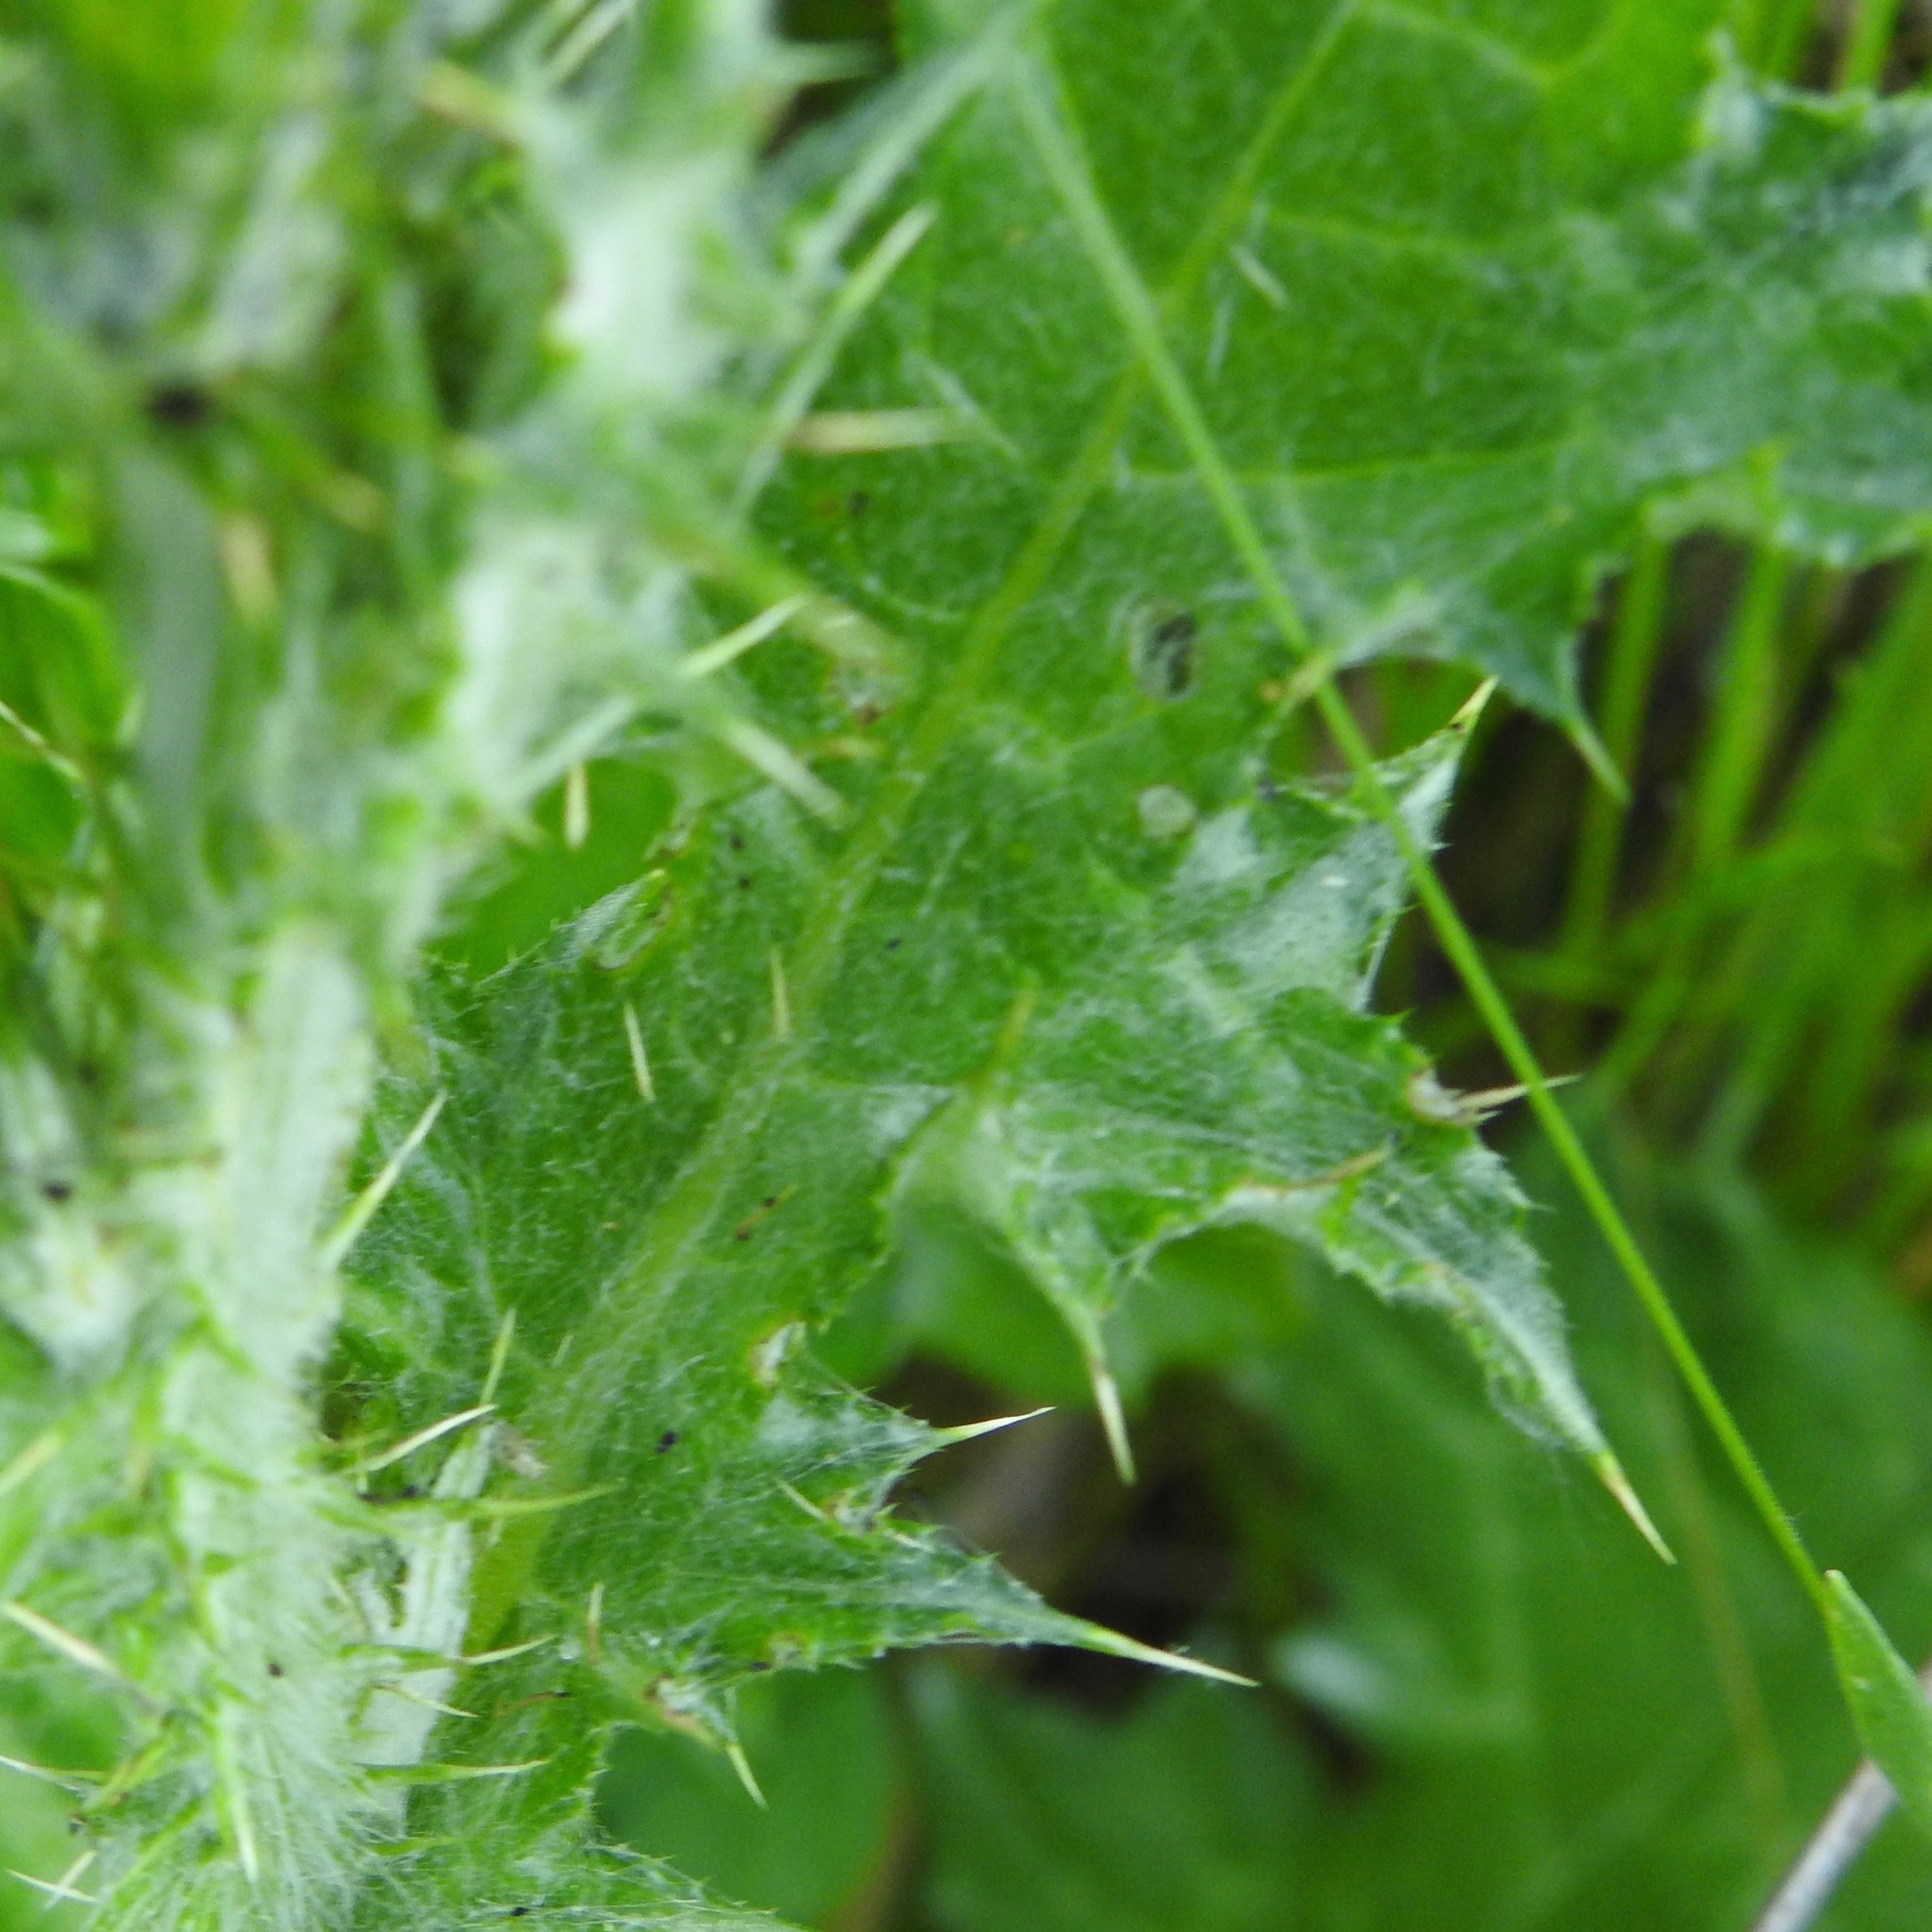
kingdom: Plantae
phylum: Tracheophyta
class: Magnoliopsida
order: Asterales
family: Asteraceae
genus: Carduus
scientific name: Carduus pycnocephalus
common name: Plymouth thistle
